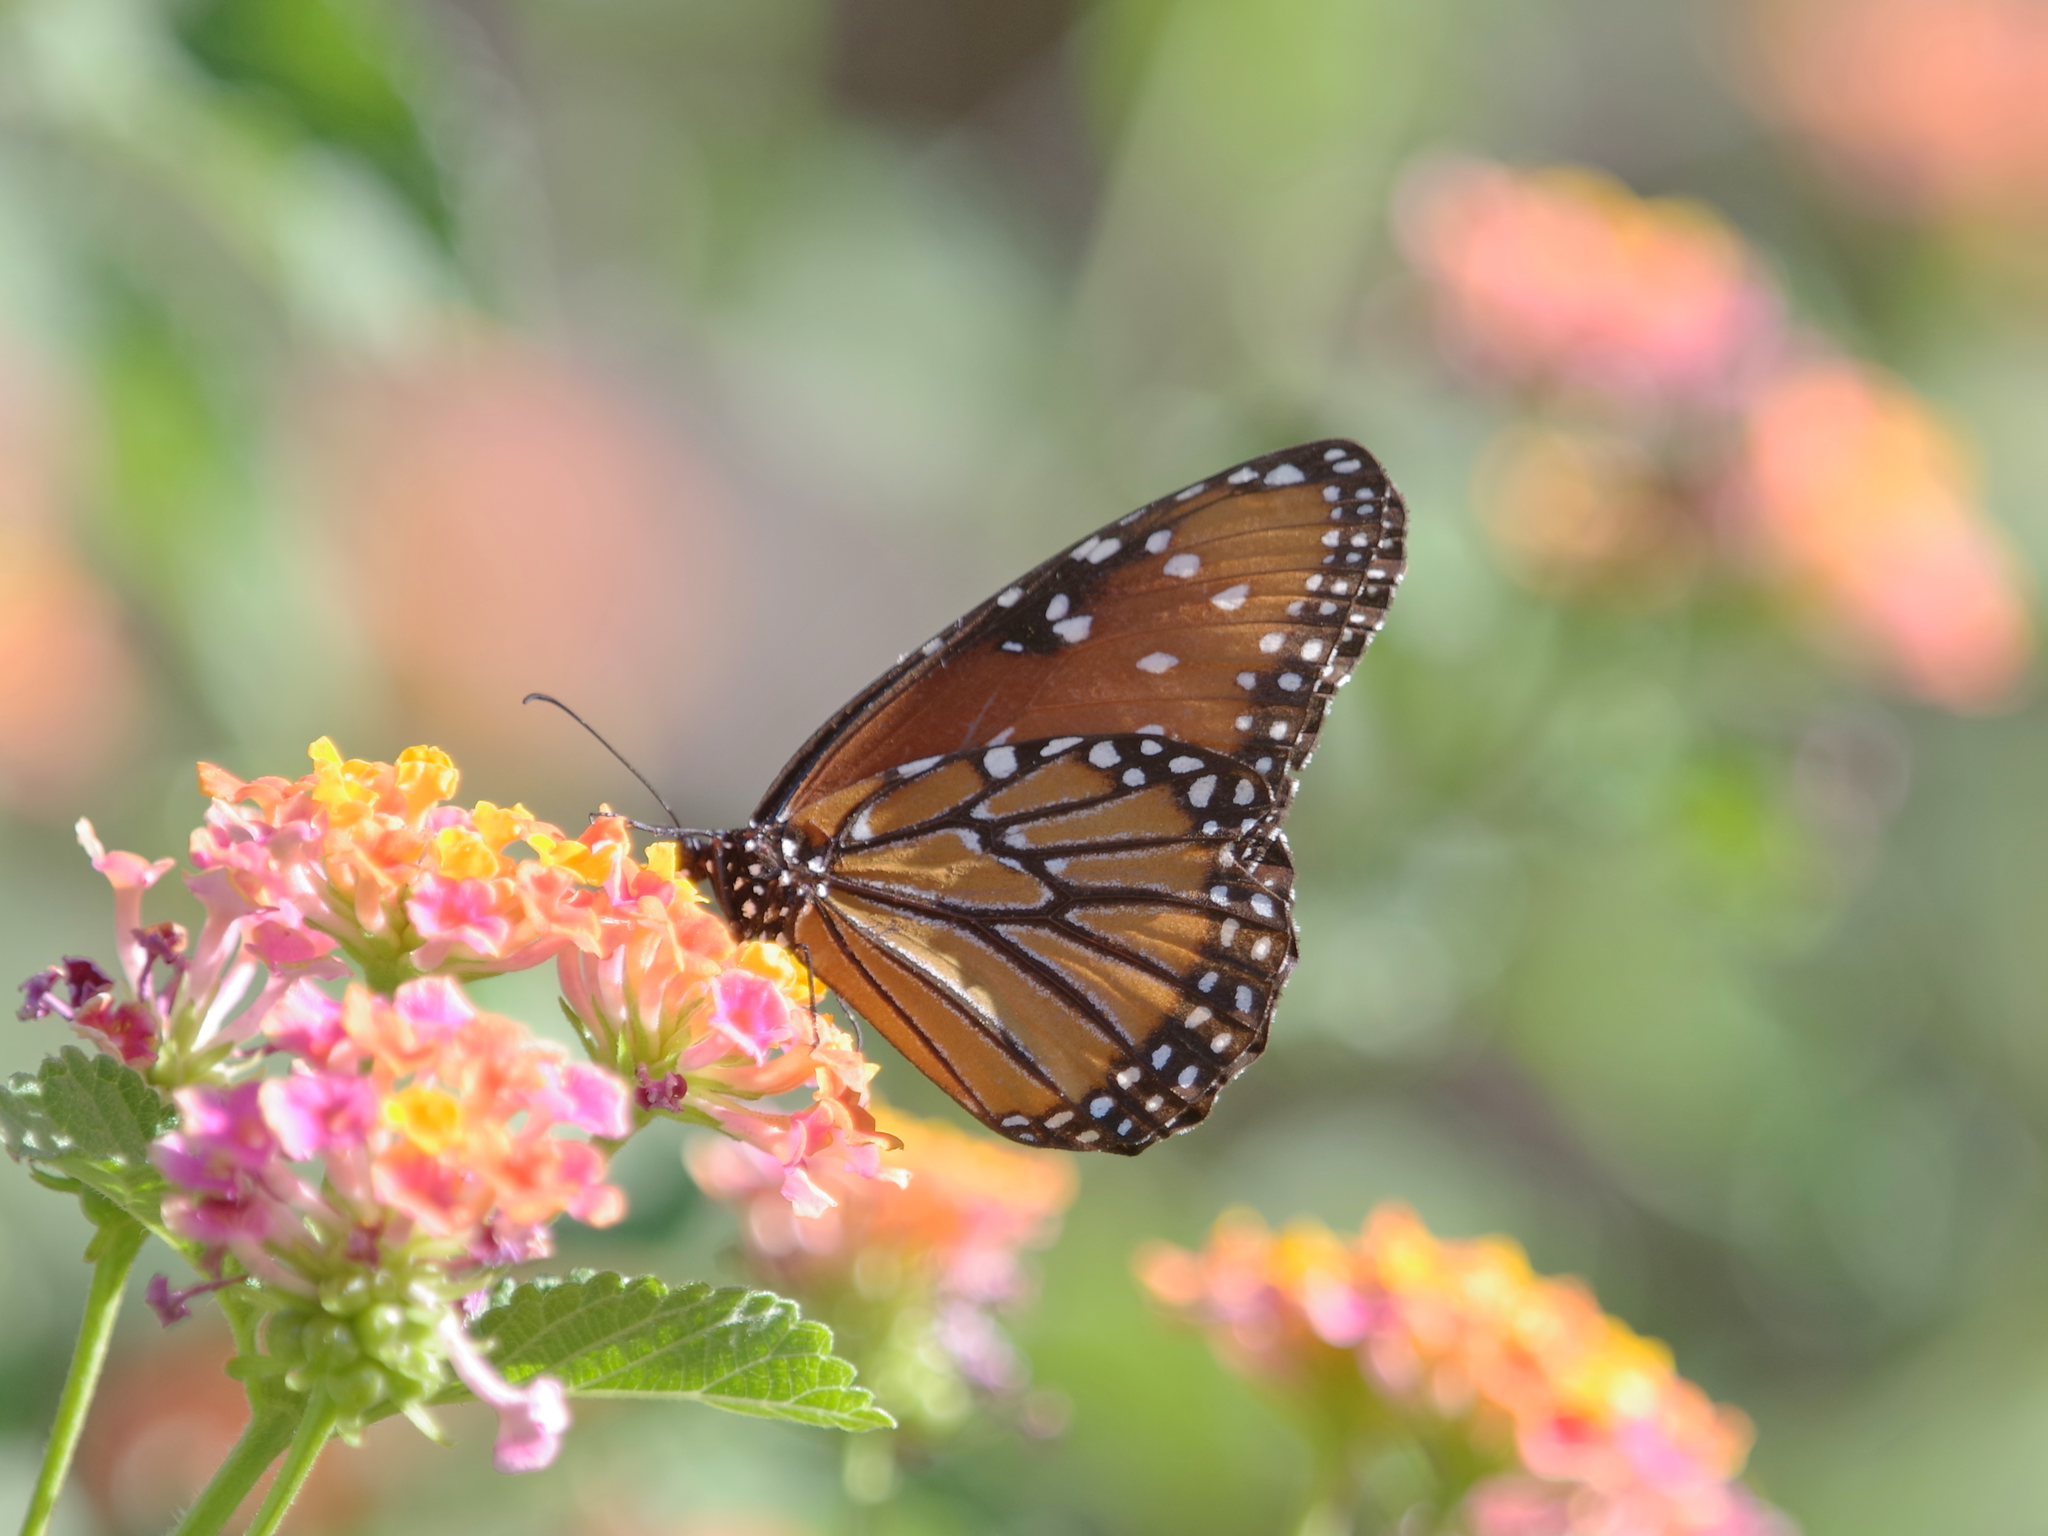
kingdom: Animalia
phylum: Arthropoda
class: Insecta
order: Lepidoptera
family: Nymphalidae
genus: Danaus
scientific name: Danaus gilippus
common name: Queen
